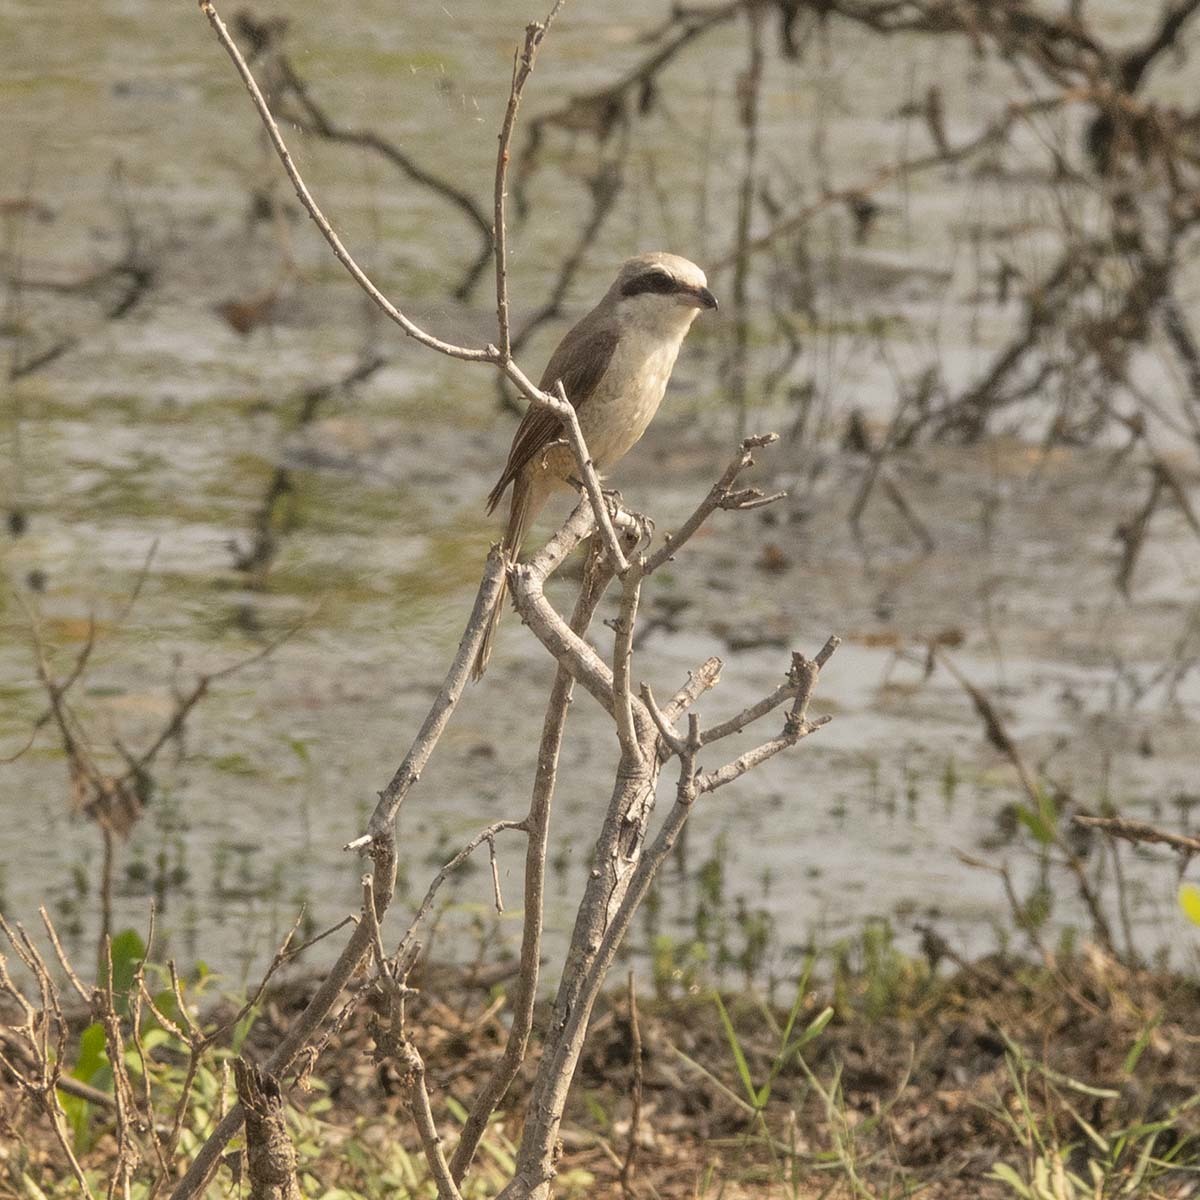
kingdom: Animalia
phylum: Chordata
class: Aves
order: Passeriformes
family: Laniidae
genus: Lanius
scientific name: Lanius cristatus
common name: Brown shrike
